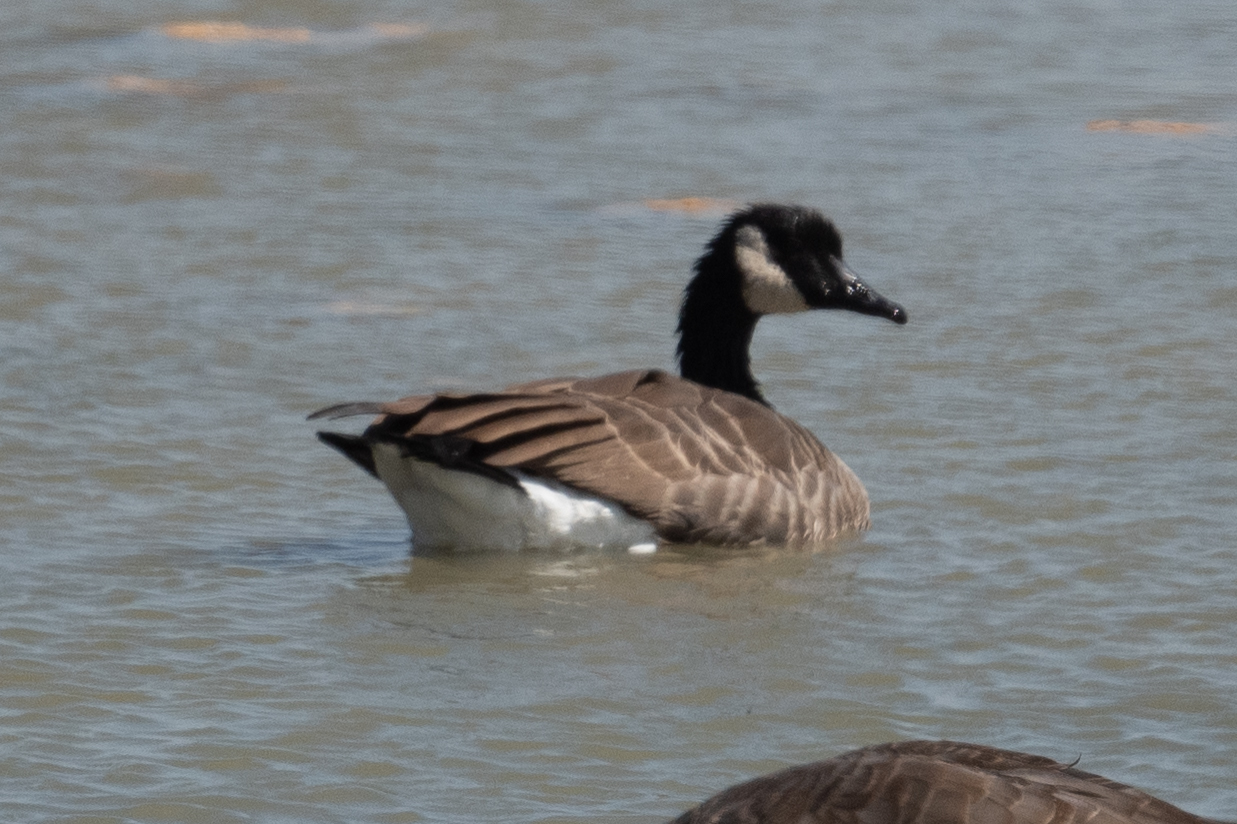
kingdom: Animalia
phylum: Chordata
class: Aves
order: Anseriformes
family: Anatidae
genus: Branta
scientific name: Branta canadensis
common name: Canada goose
